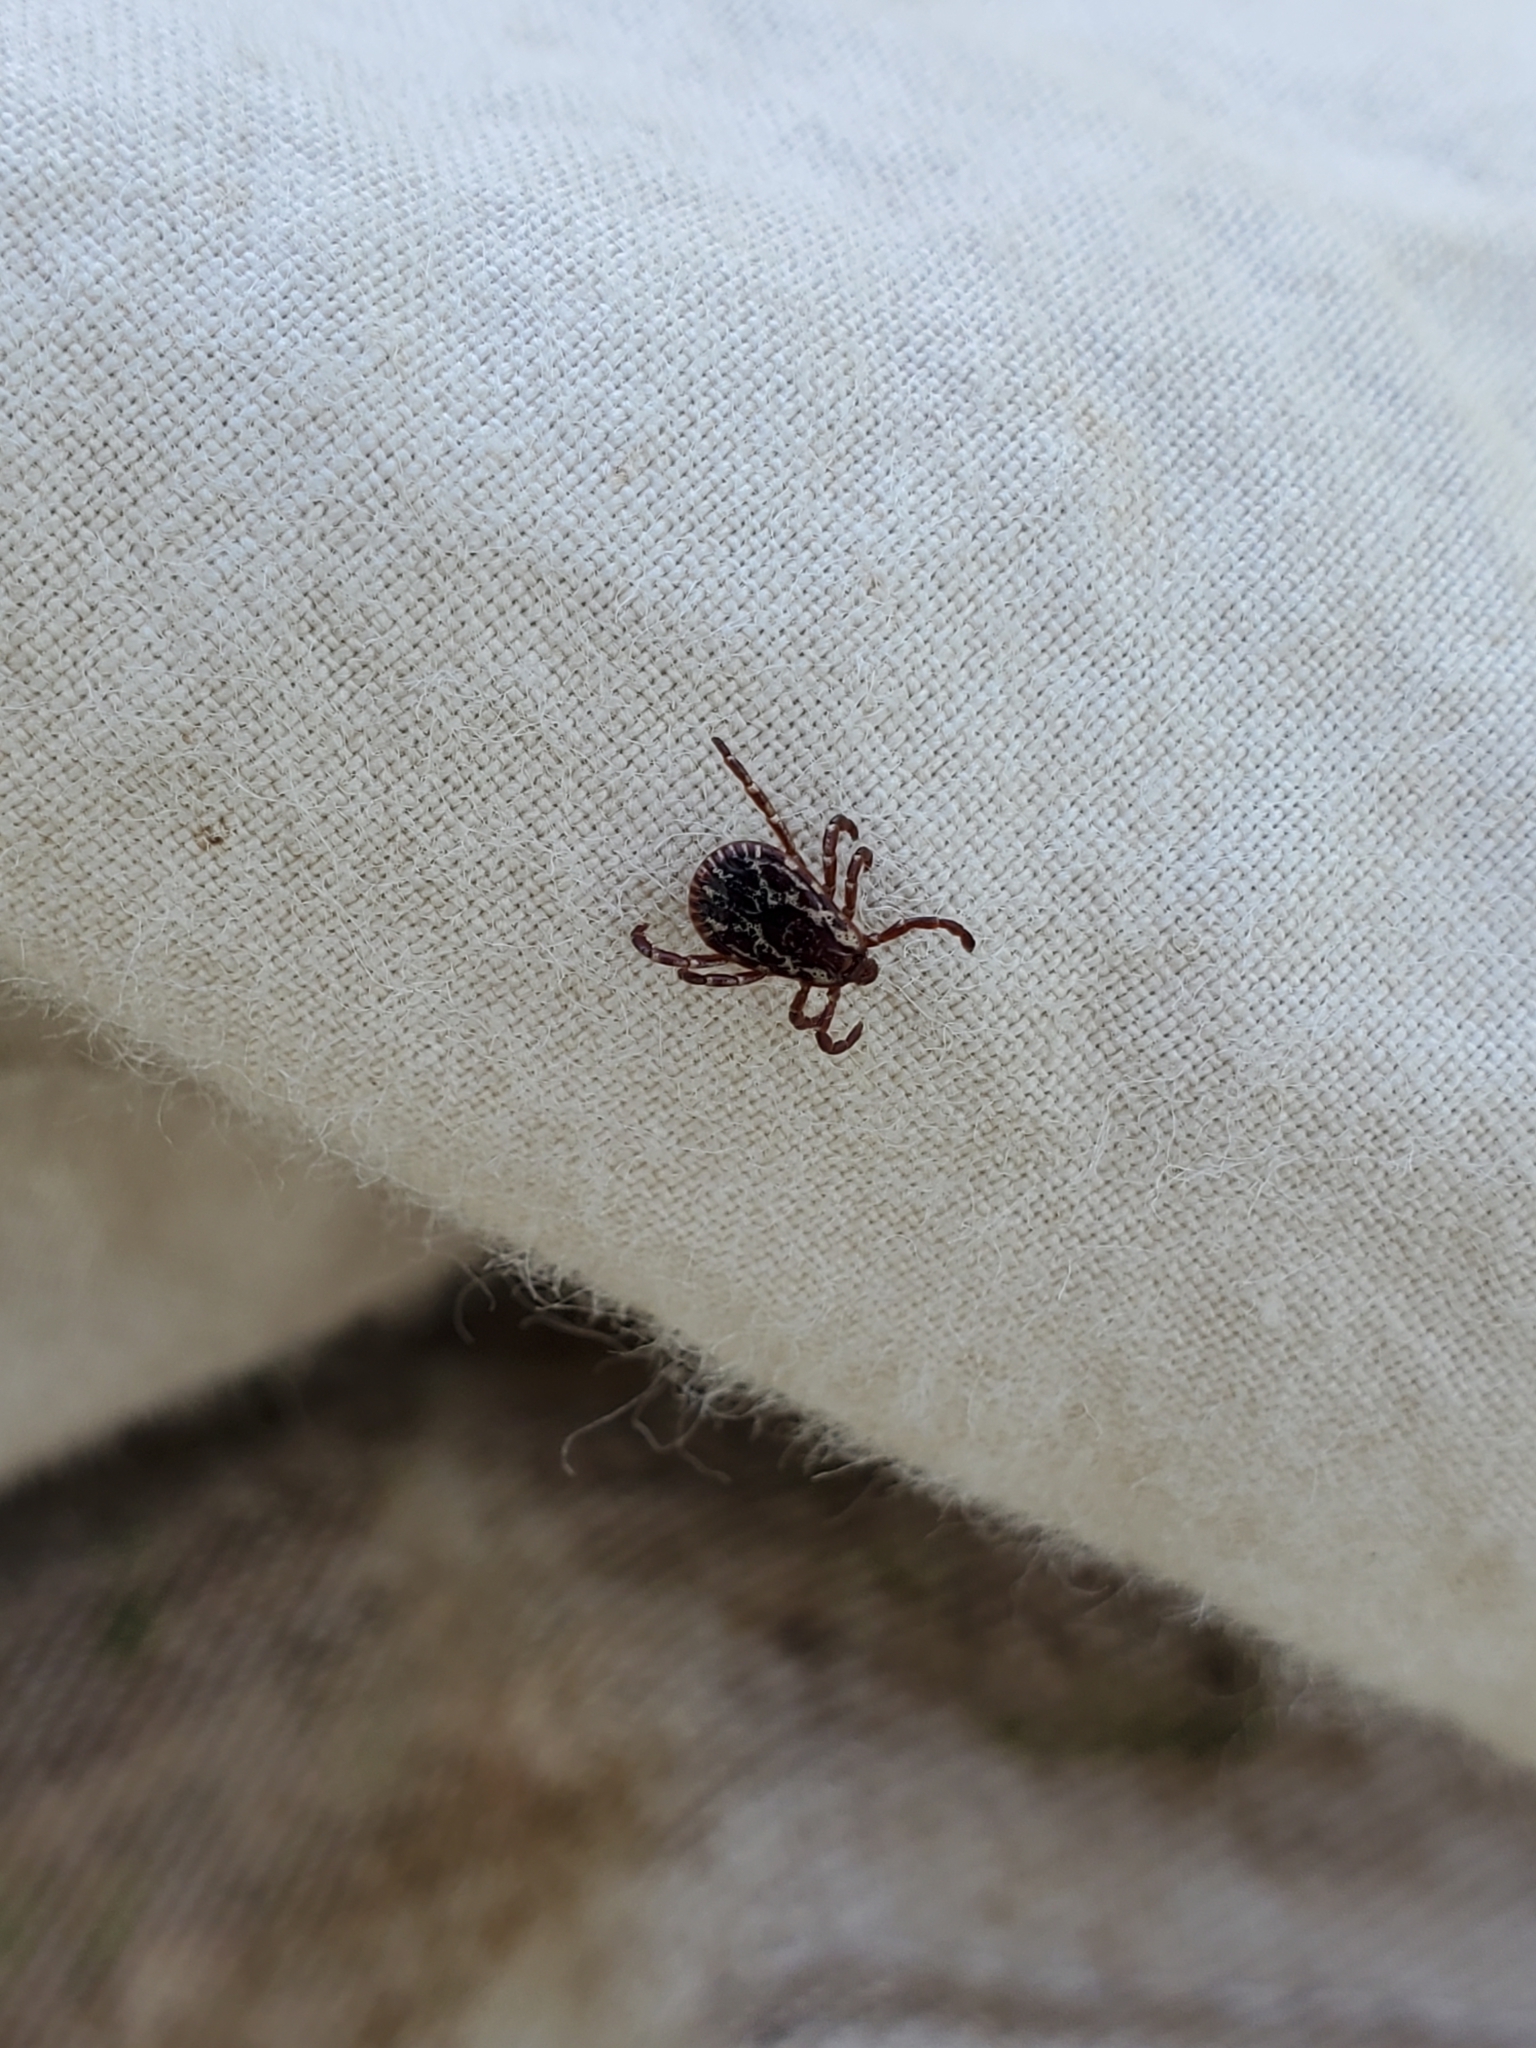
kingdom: Animalia
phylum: Arthropoda
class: Arachnida
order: Ixodida
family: Ixodidae
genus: Dermacentor
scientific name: Dermacentor variabilis
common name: American dog tick
